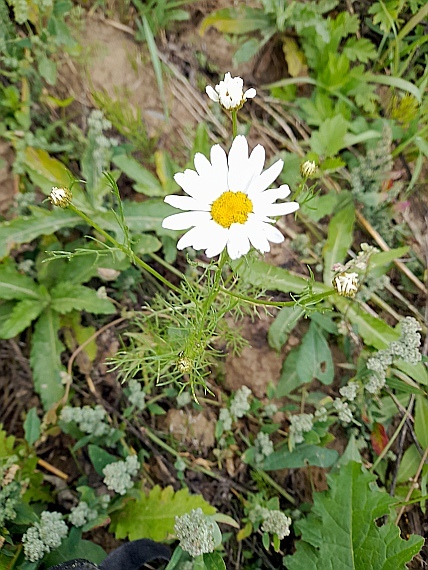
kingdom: Plantae
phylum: Tracheophyta
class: Magnoliopsida
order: Asterales
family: Asteraceae
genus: Tripleurospermum
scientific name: Tripleurospermum inodorum
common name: Scentless mayweed
